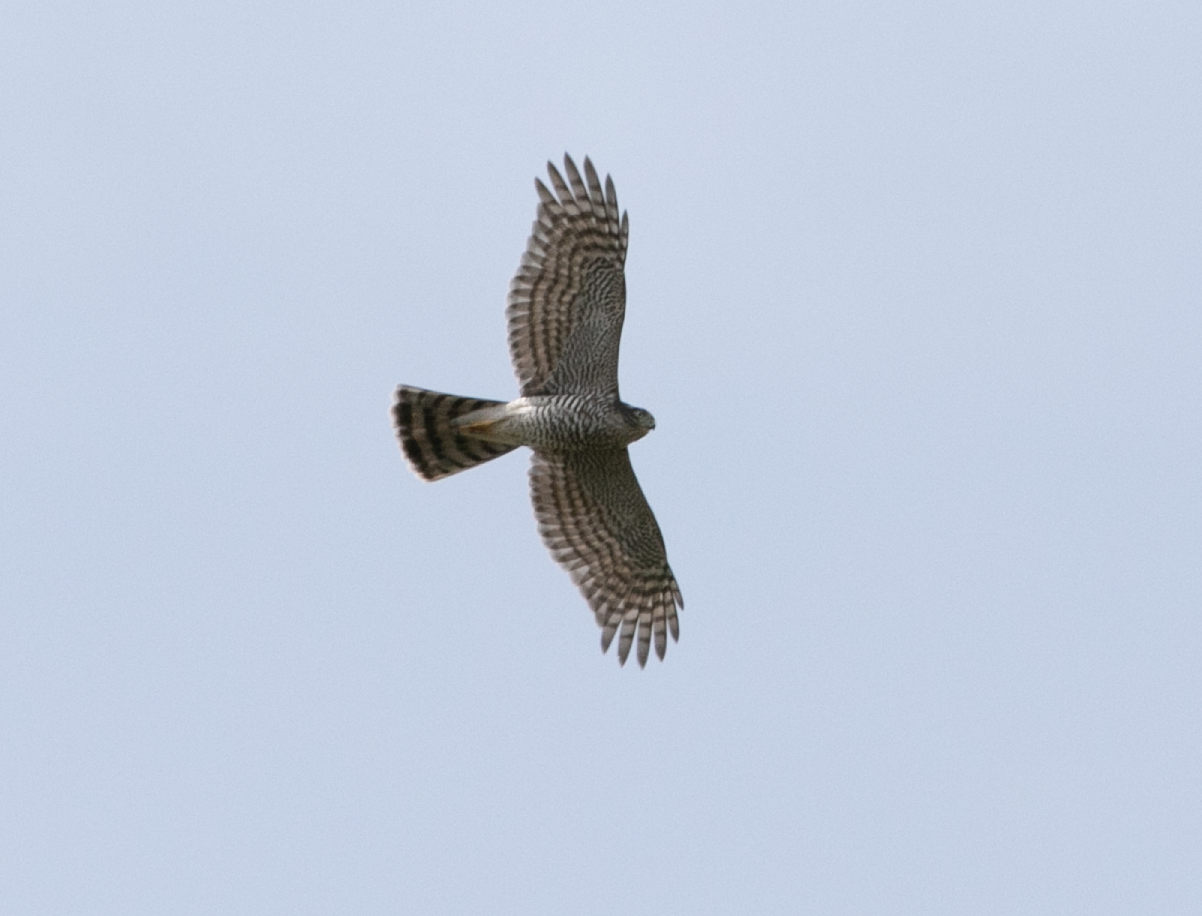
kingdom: Animalia
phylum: Chordata
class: Aves
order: Accipitriformes
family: Accipitridae
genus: Accipiter
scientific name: Accipiter nisus
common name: Eurasian sparrowhawk
